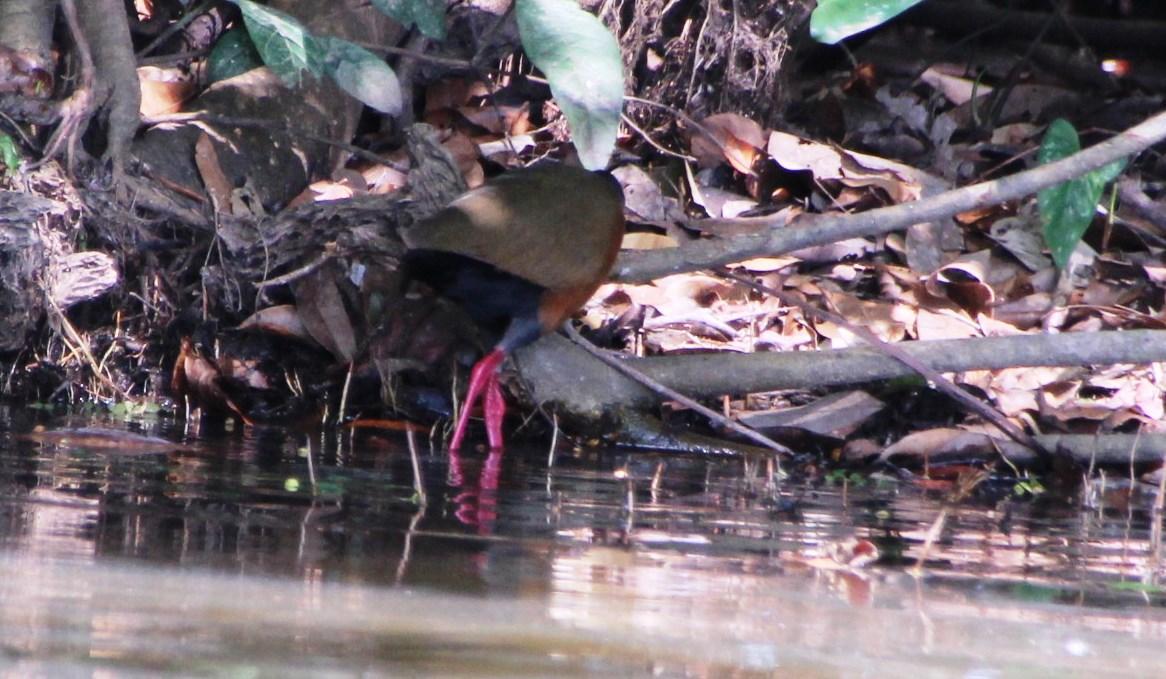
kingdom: Animalia
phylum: Chordata
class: Aves
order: Gruiformes
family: Rallidae
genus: Aramides
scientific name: Aramides cajanea
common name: Gray-necked wood-rail
